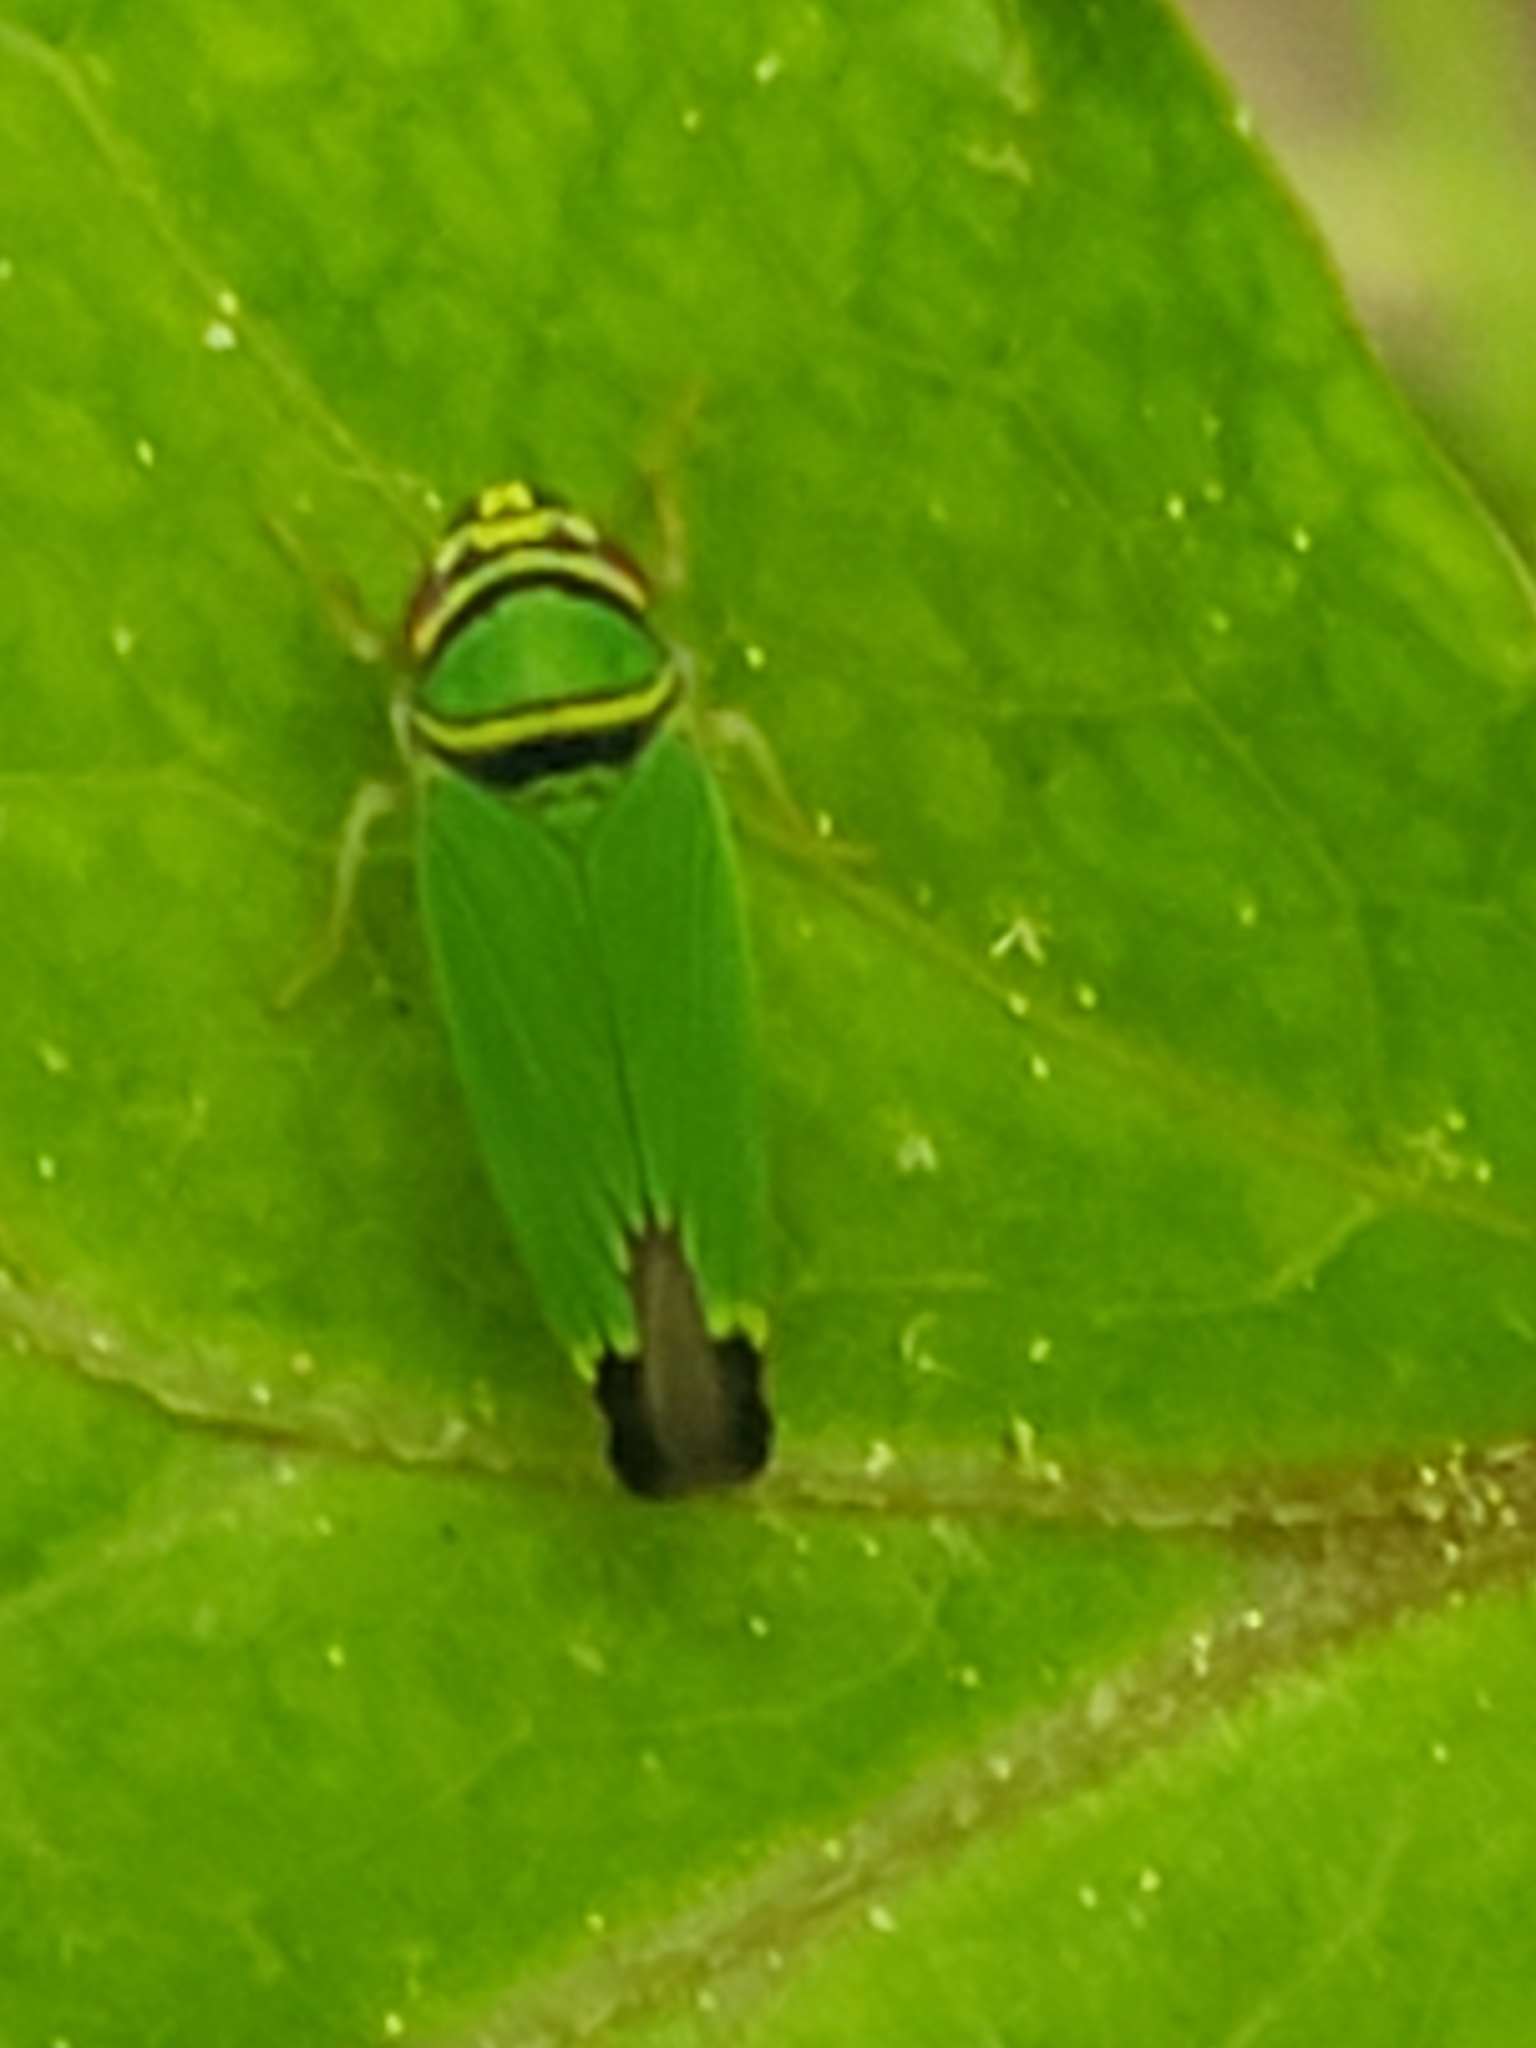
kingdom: Animalia
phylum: Arthropoda
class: Insecta
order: Hemiptera
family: Cicadellidae
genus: Tylozygus
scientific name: Tylozygus geometricus
